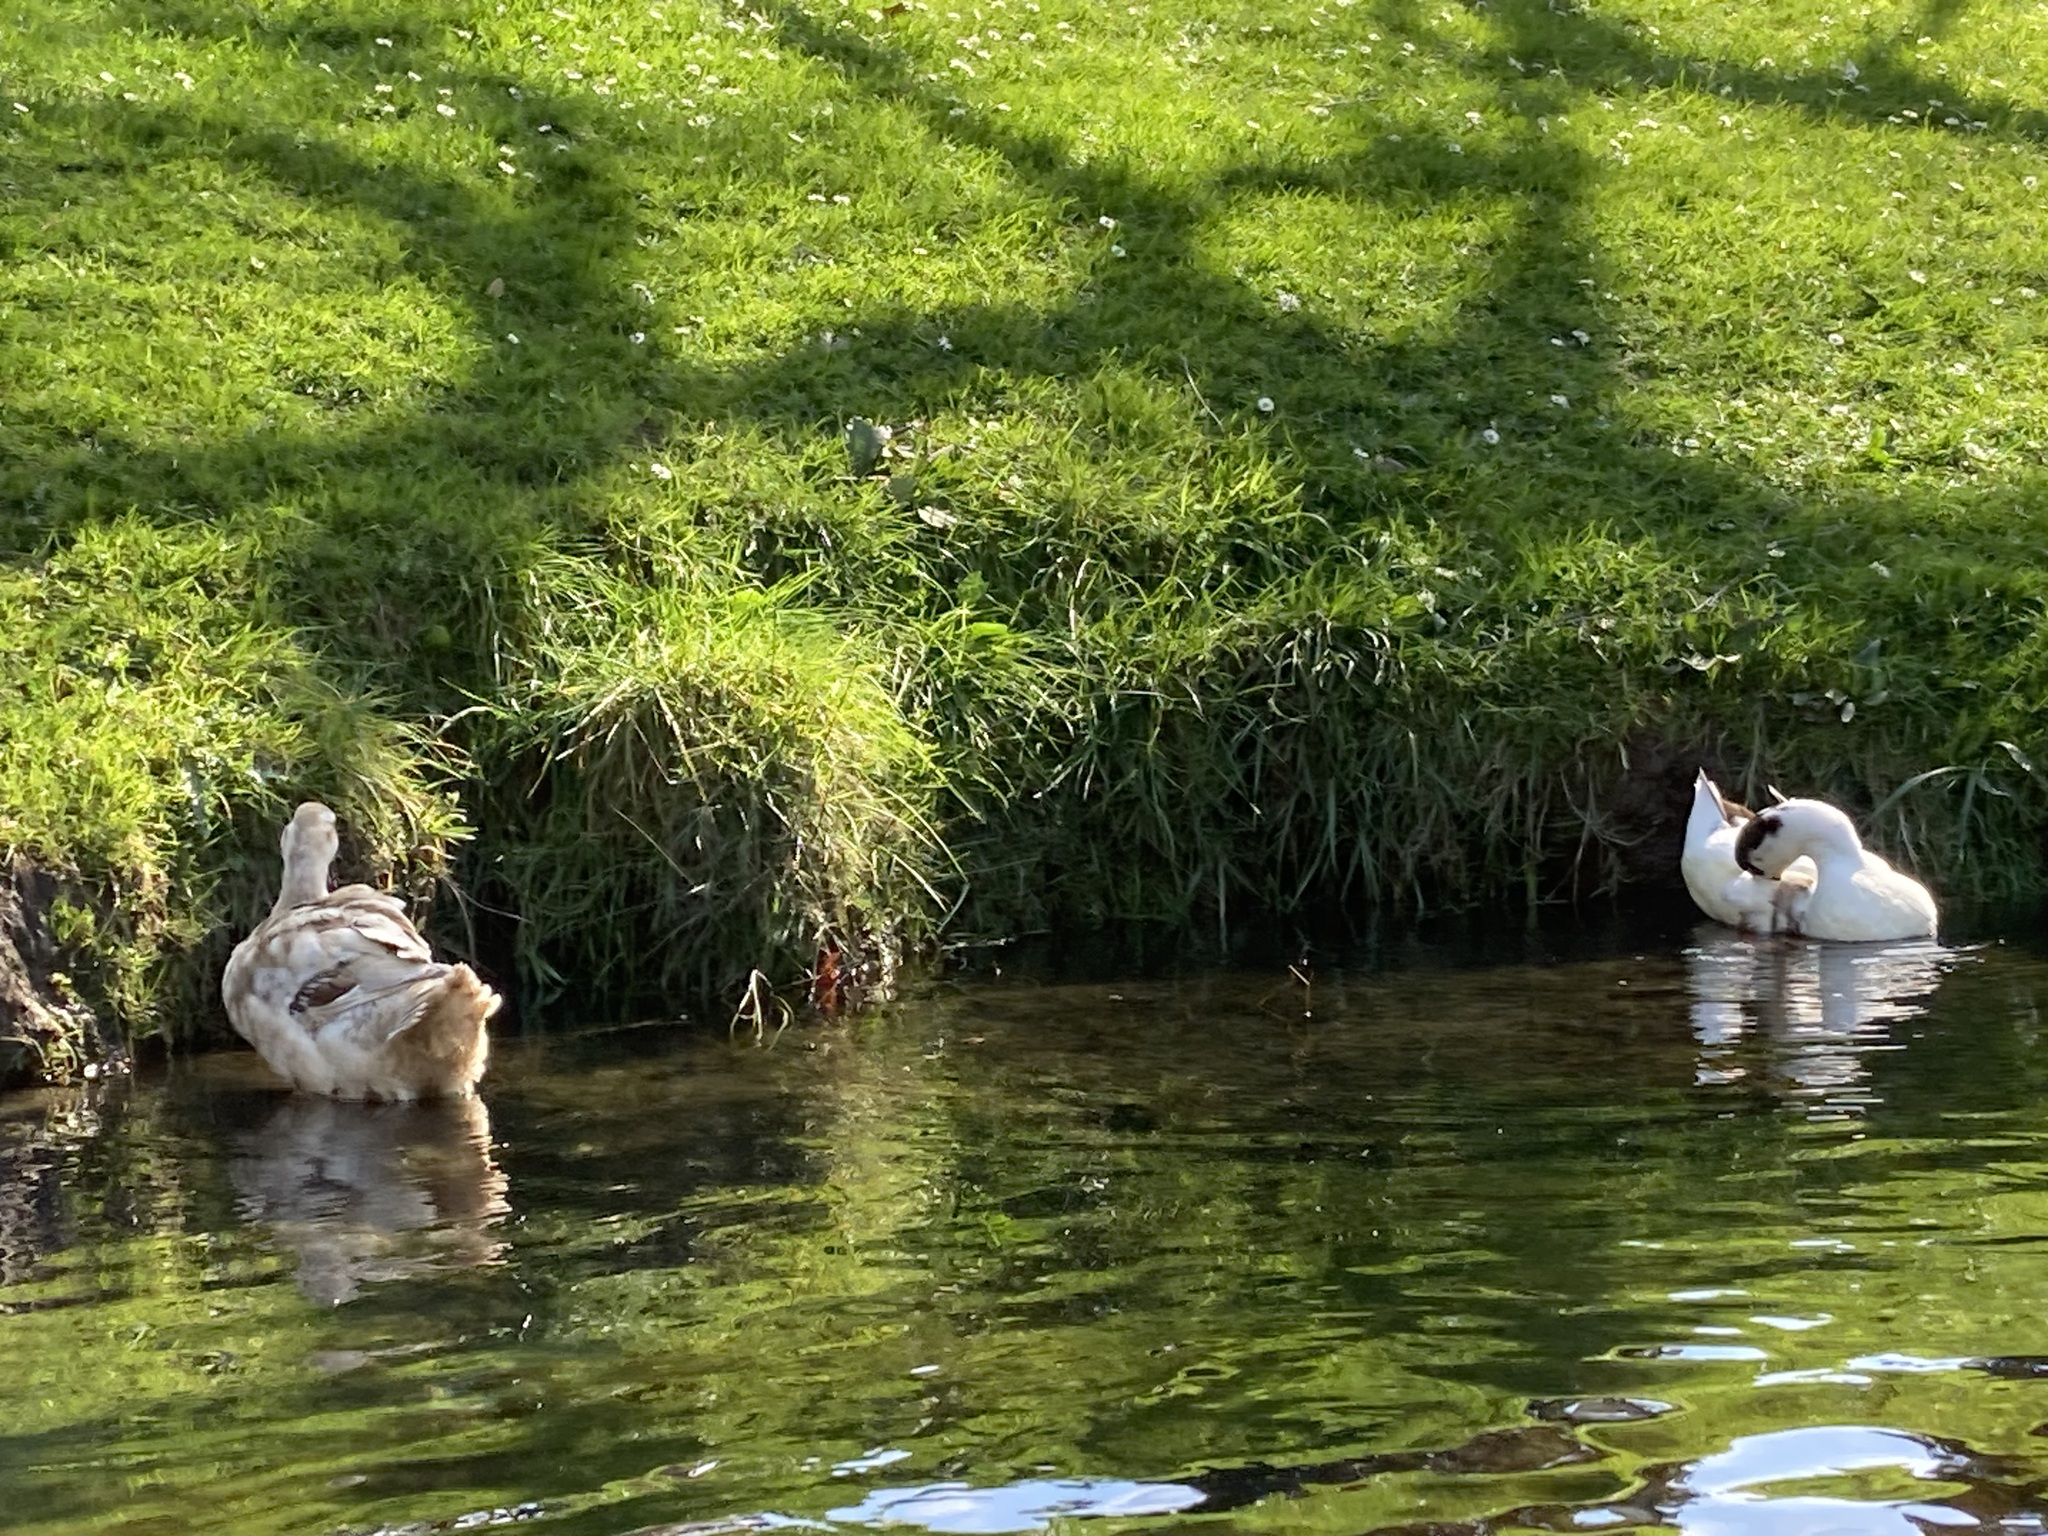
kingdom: Animalia
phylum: Chordata
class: Aves
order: Anseriformes
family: Anatidae
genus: Anas
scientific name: Anas platyrhynchos
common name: Mallard
